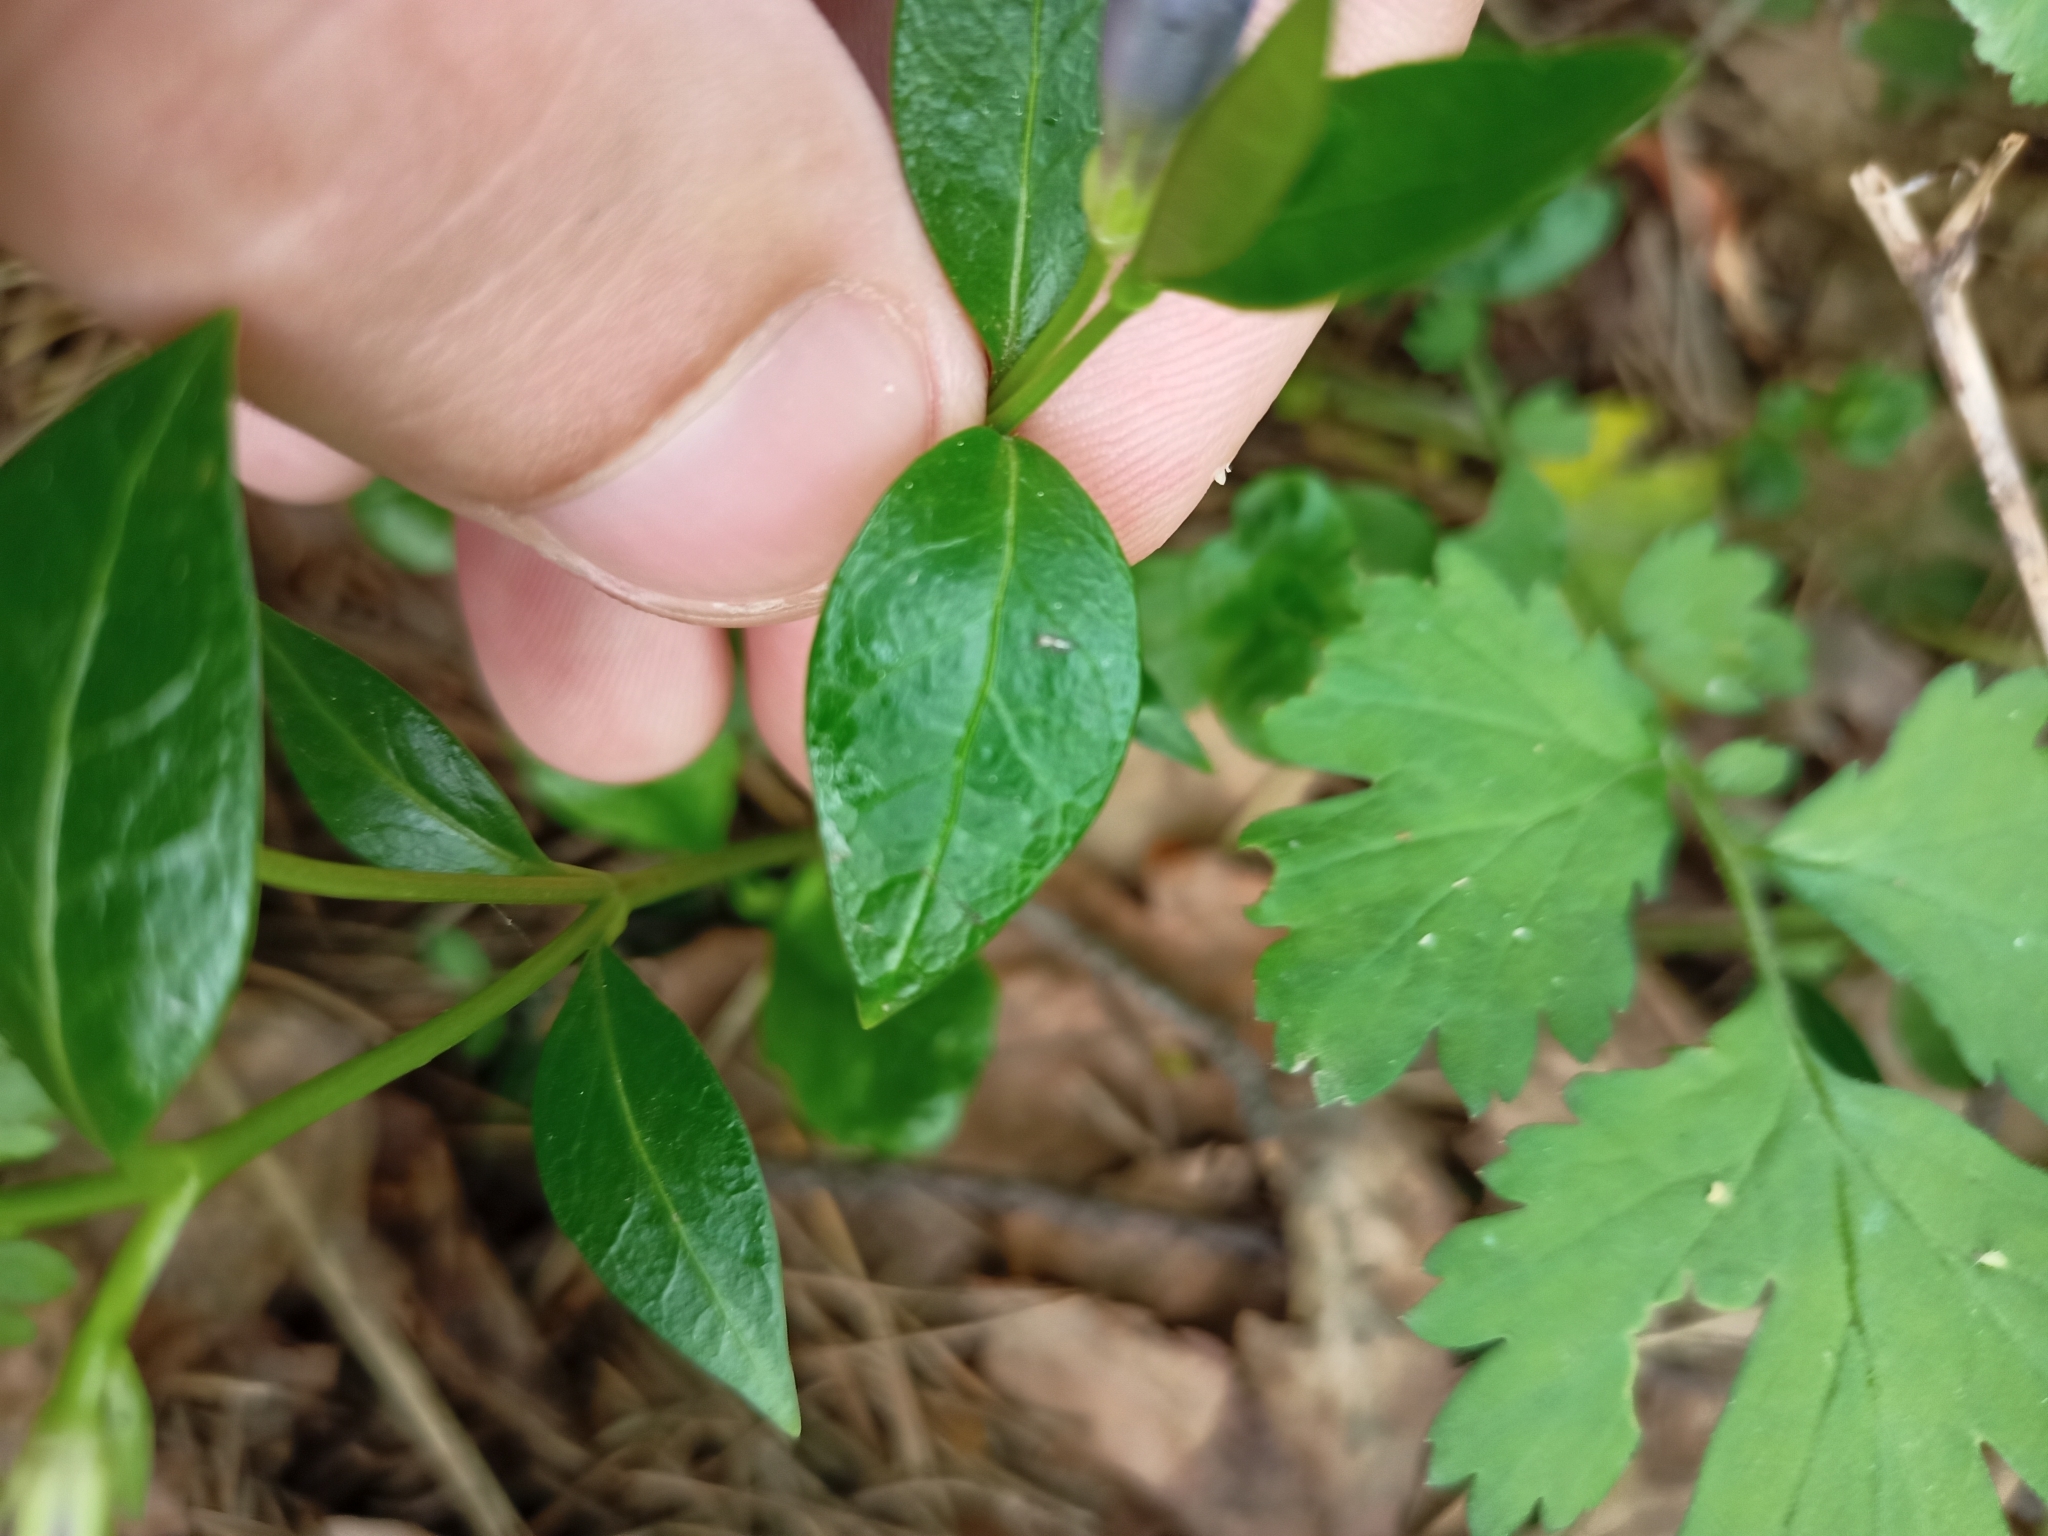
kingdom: Plantae
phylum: Tracheophyta
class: Magnoliopsida
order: Gentianales
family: Apocynaceae
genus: Vinca
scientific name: Vinca minor
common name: Lesser periwinkle
